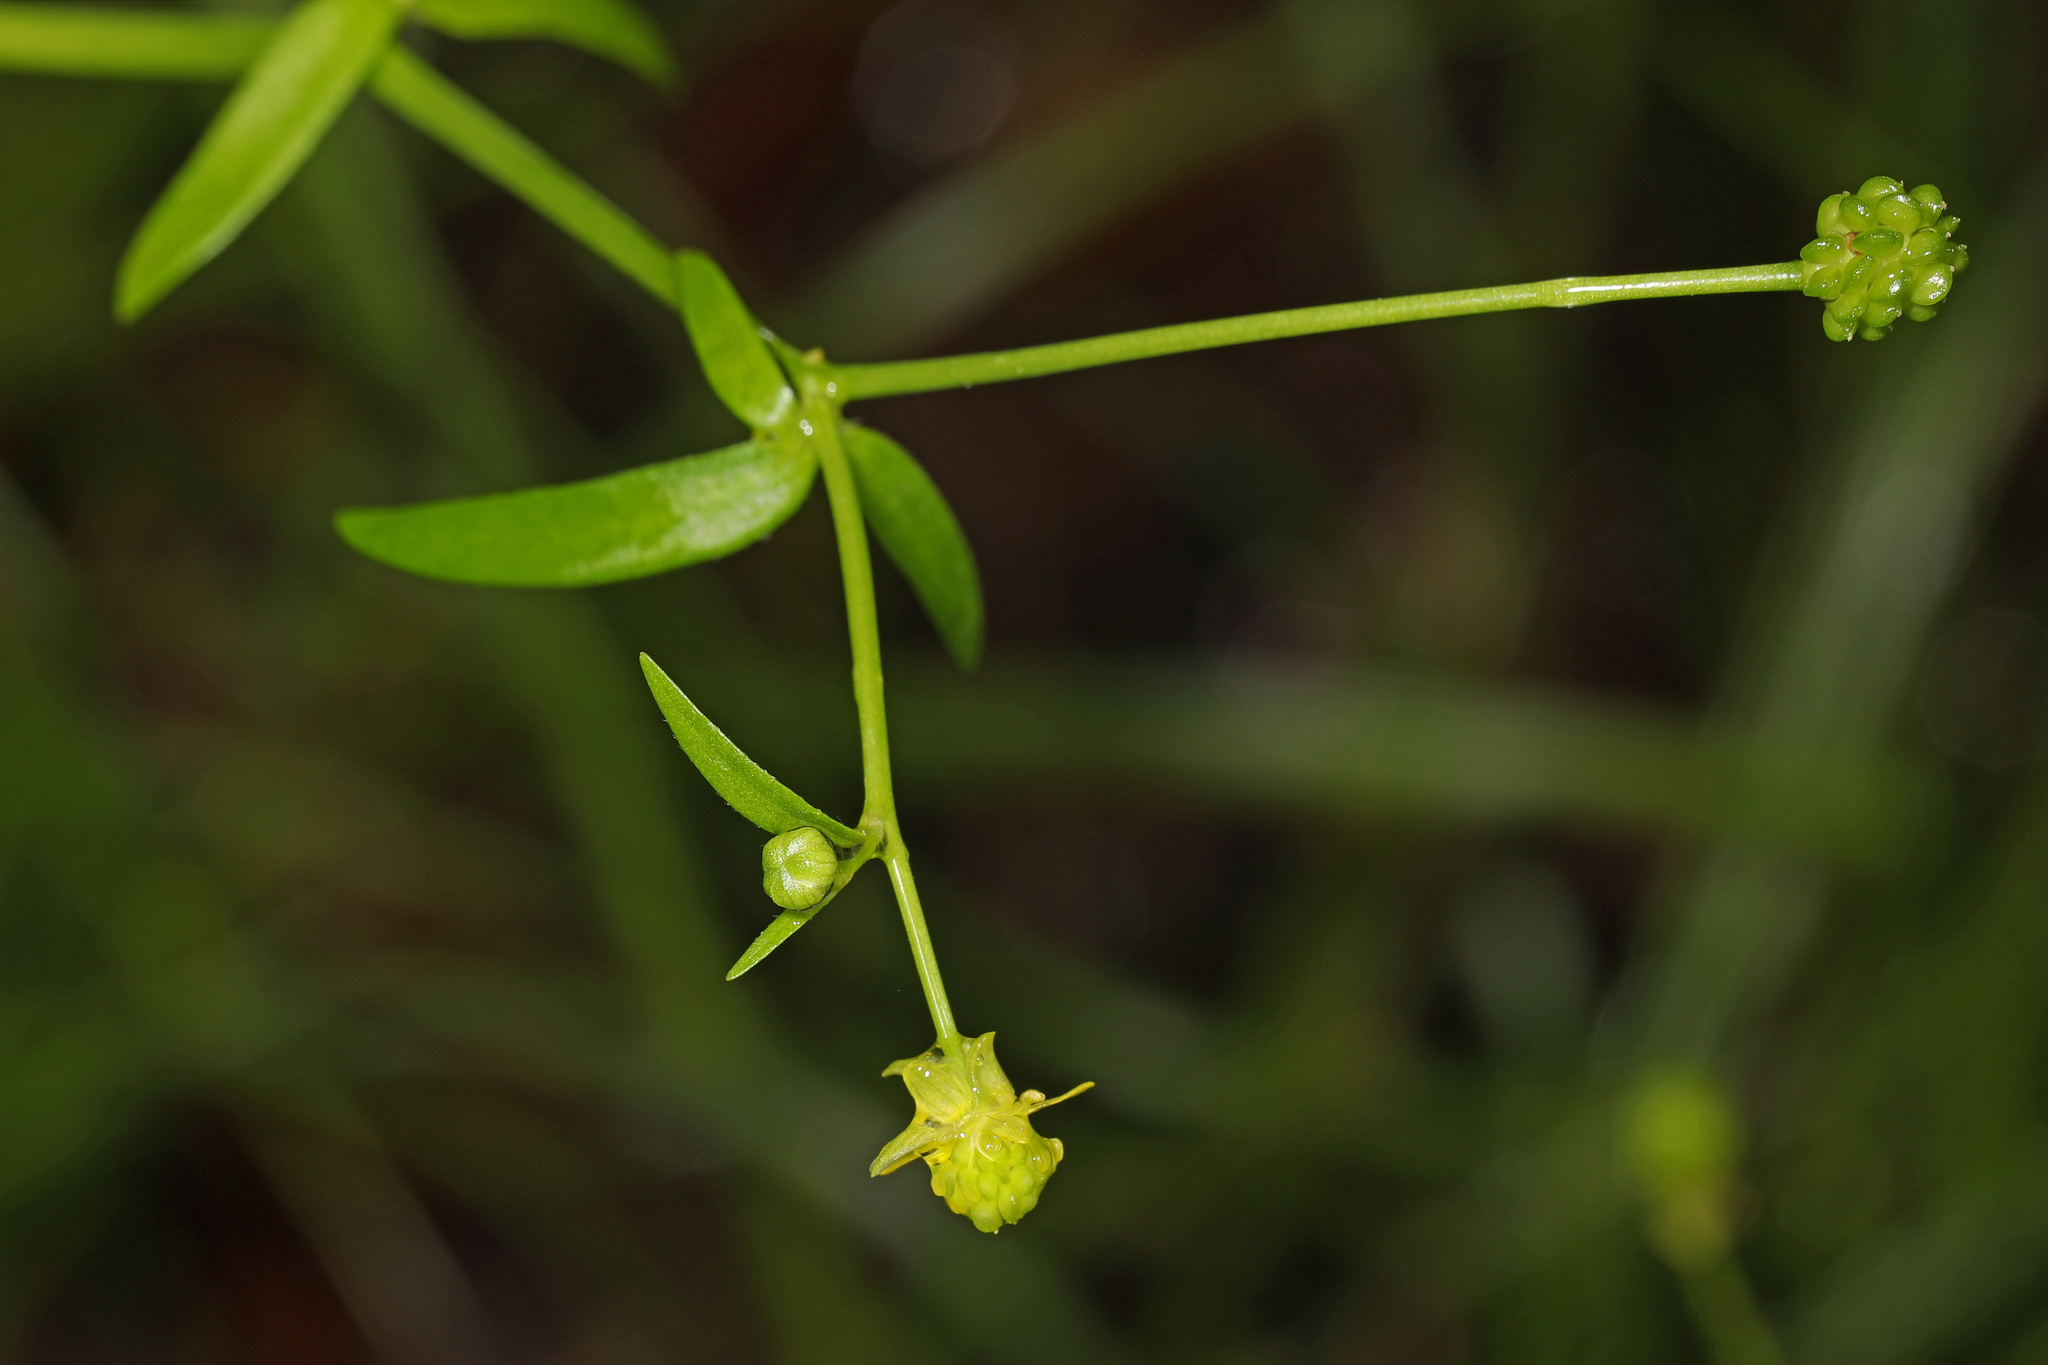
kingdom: Plantae
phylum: Tracheophyta
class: Magnoliopsida
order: Ranunculales
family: Ranunculaceae
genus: Ranunculus
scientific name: Ranunculus abortivus
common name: Early wood buttercup
